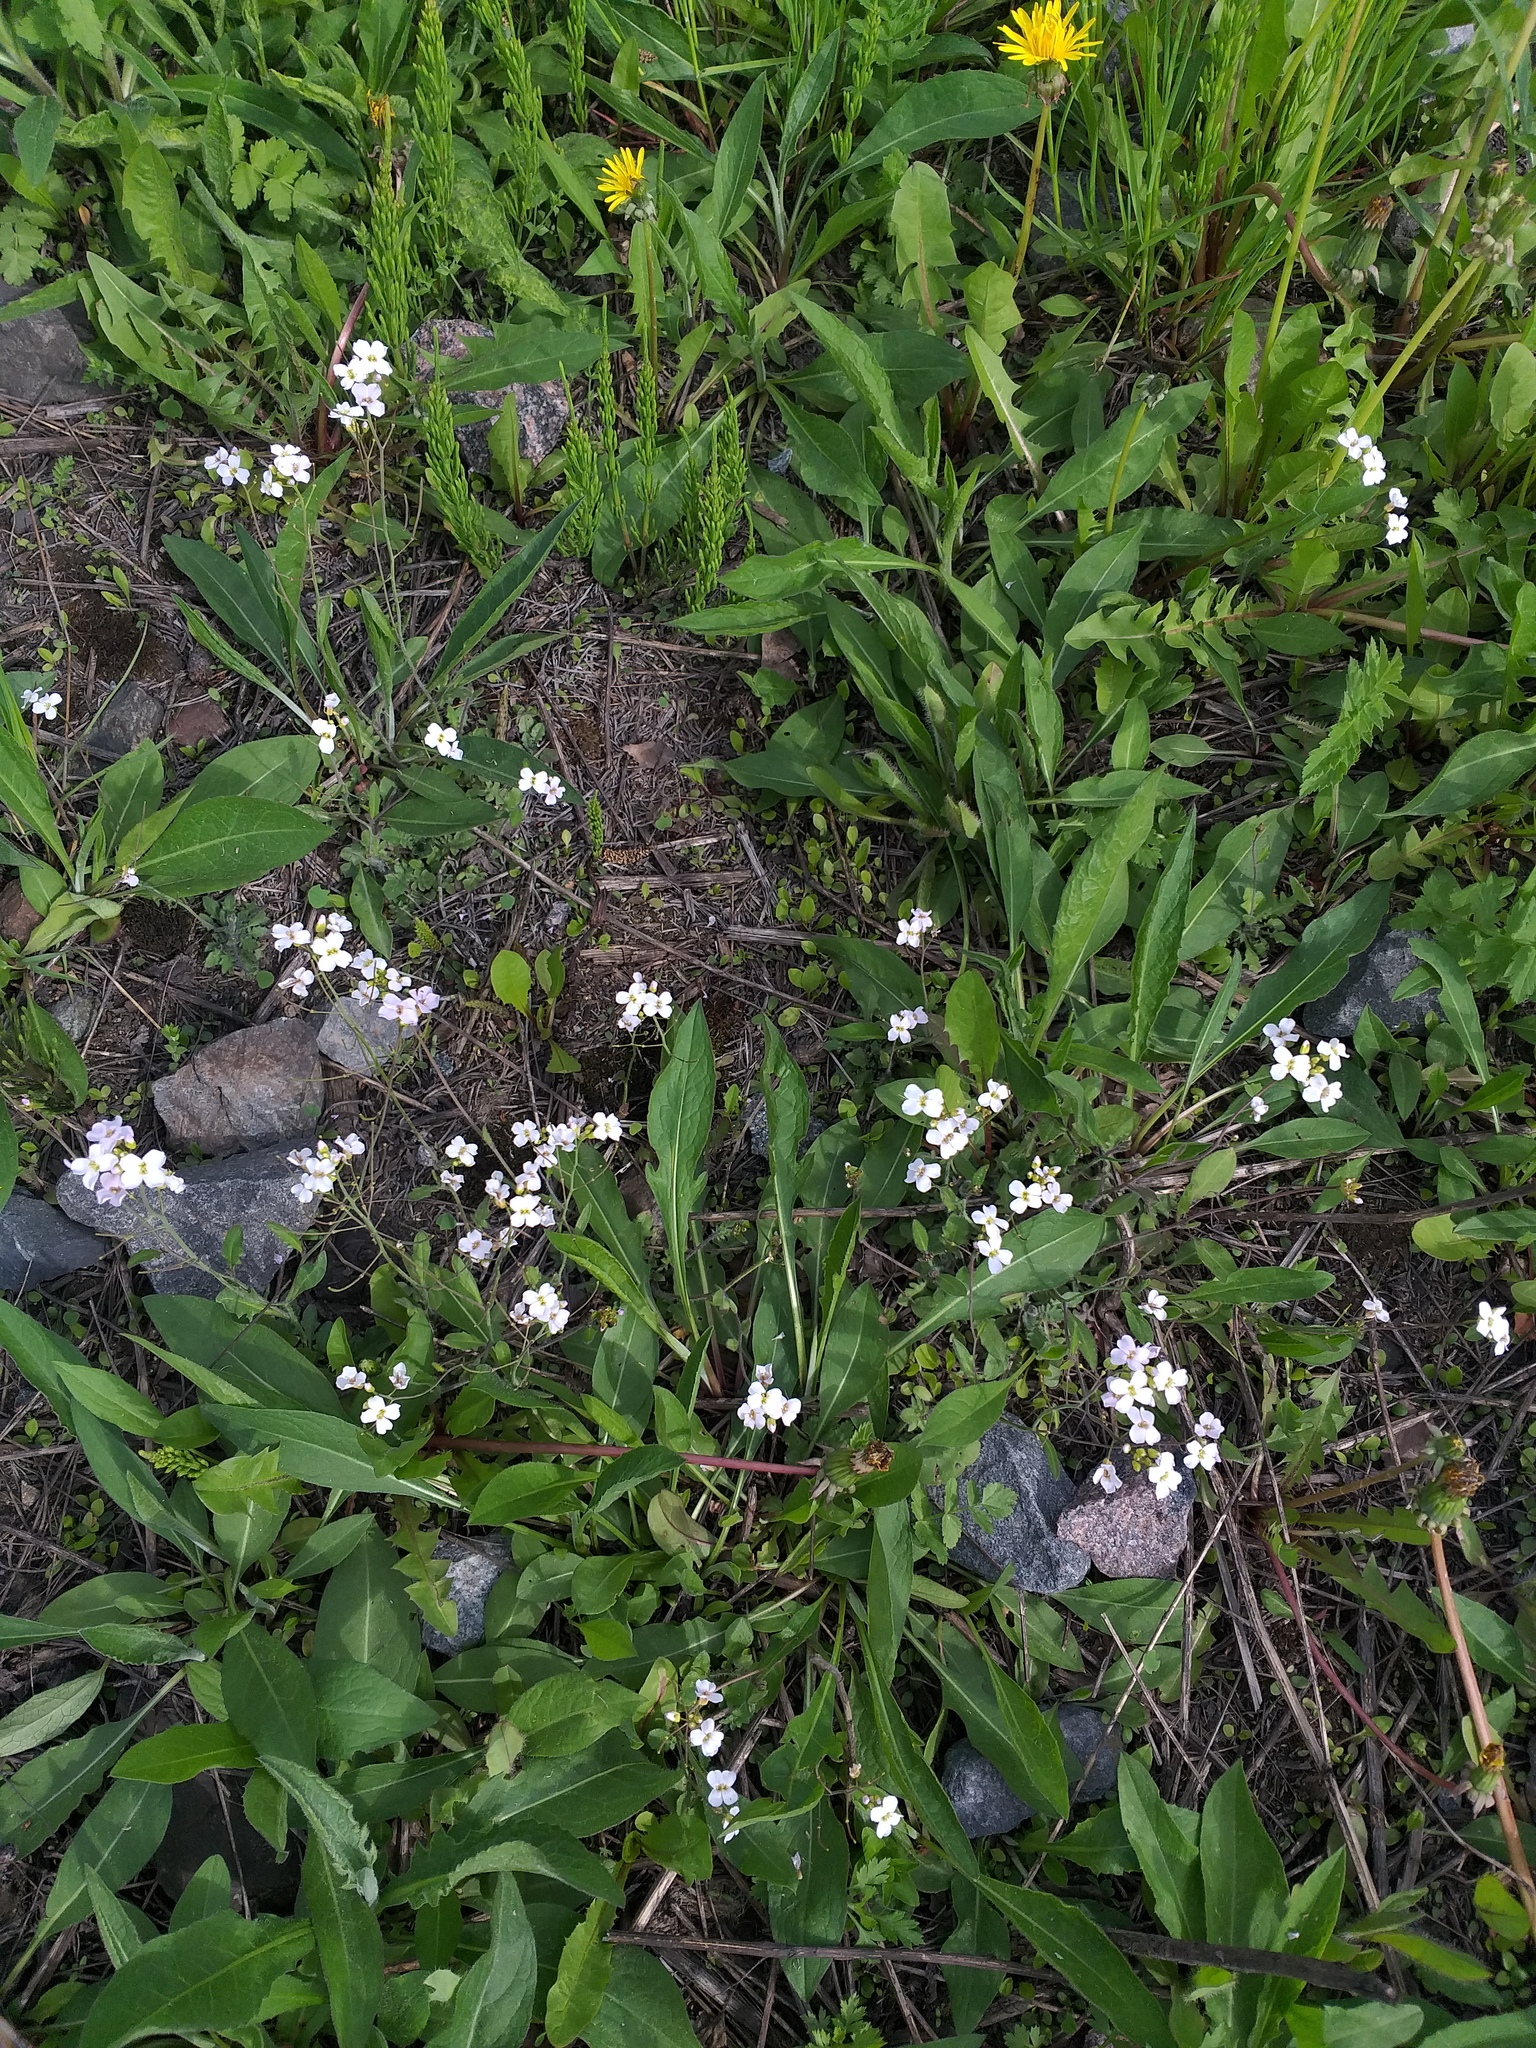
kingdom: Plantae
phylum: Tracheophyta
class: Magnoliopsida
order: Brassicales
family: Brassicaceae
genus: Arabidopsis
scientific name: Arabidopsis arenosa
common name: Sand rock-cress
